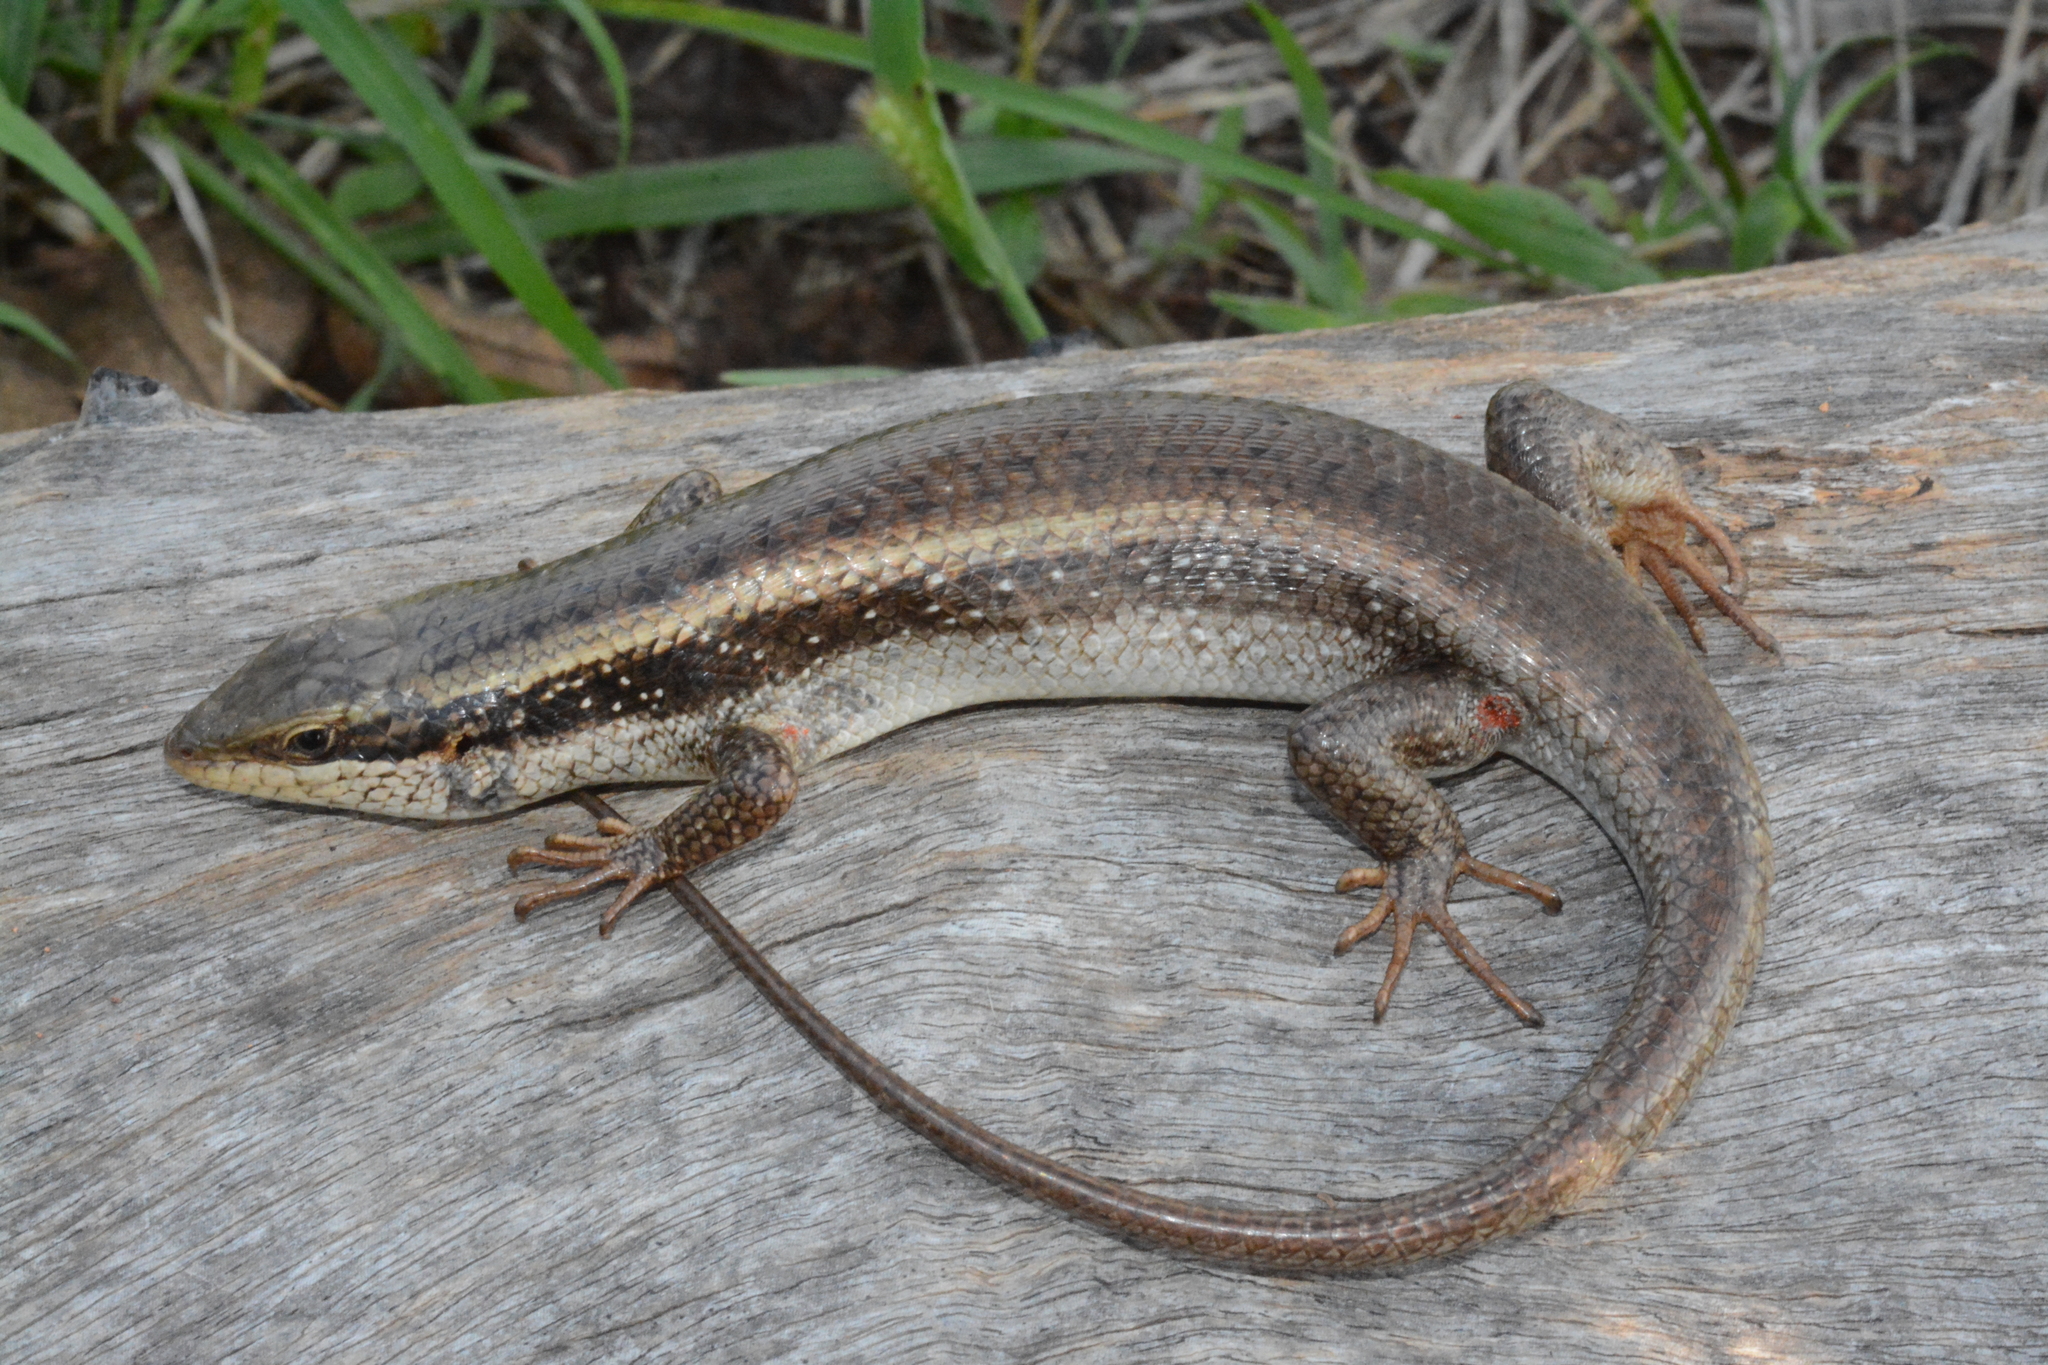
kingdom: Animalia
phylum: Chordata
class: Squamata
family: Scincidae
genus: Trachylepis
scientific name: Trachylepis planifrons
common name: Tree skink
